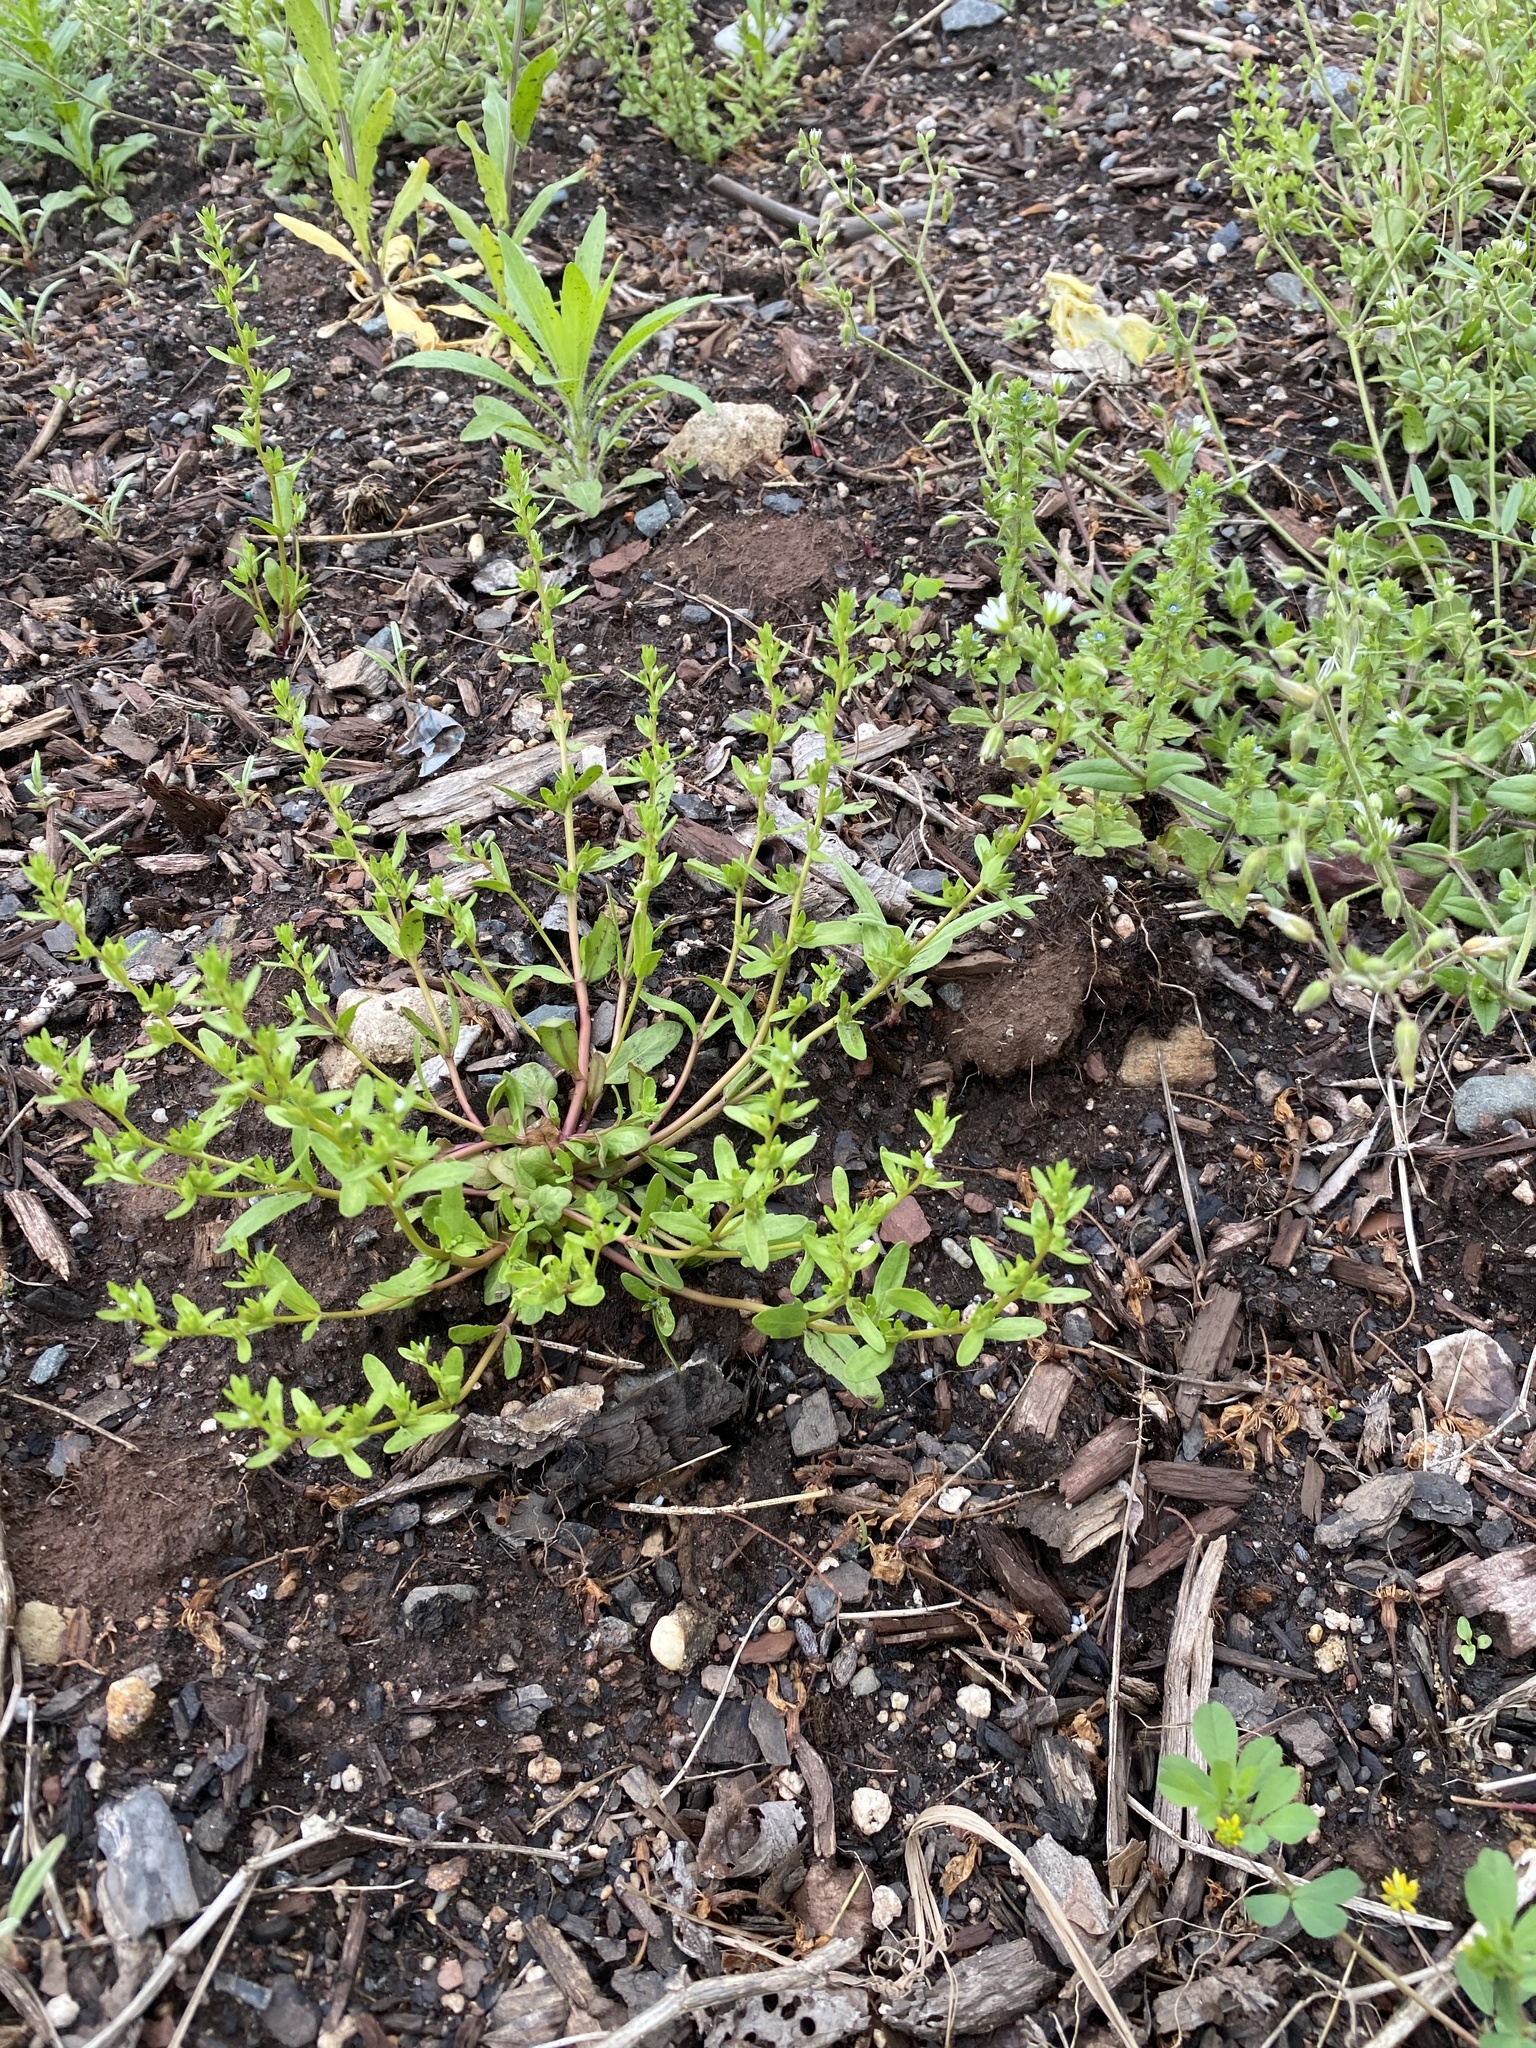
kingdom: Plantae
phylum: Tracheophyta
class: Magnoliopsida
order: Lamiales
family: Plantaginaceae
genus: Veronica
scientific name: Veronica peregrina
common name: Neckweed
